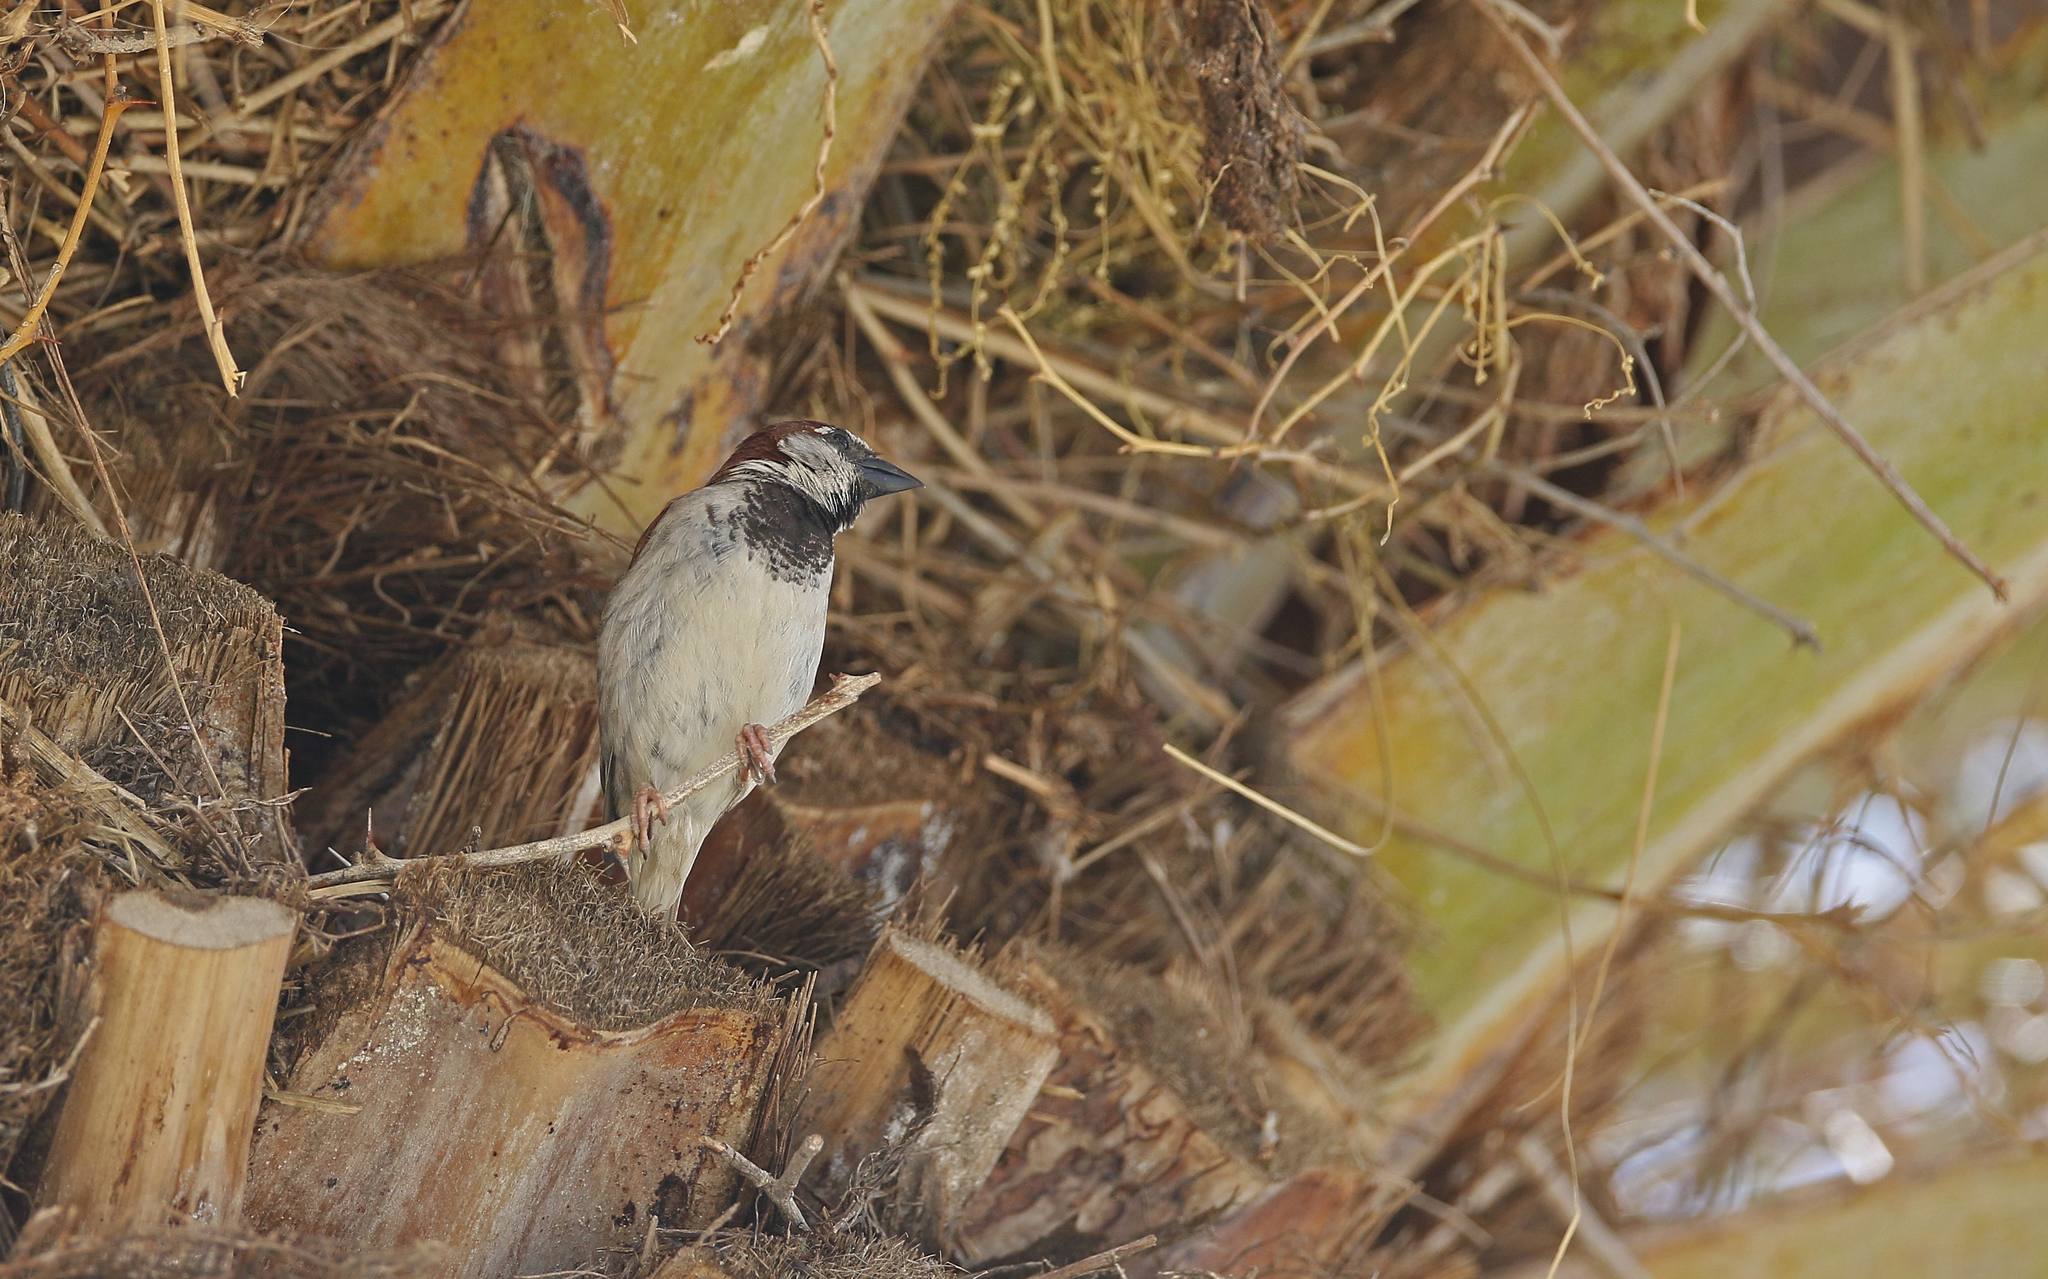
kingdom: Animalia
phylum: Chordata
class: Aves
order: Passeriformes
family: Passeridae
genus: Passer
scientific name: Passer domesticus
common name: House sparrow
